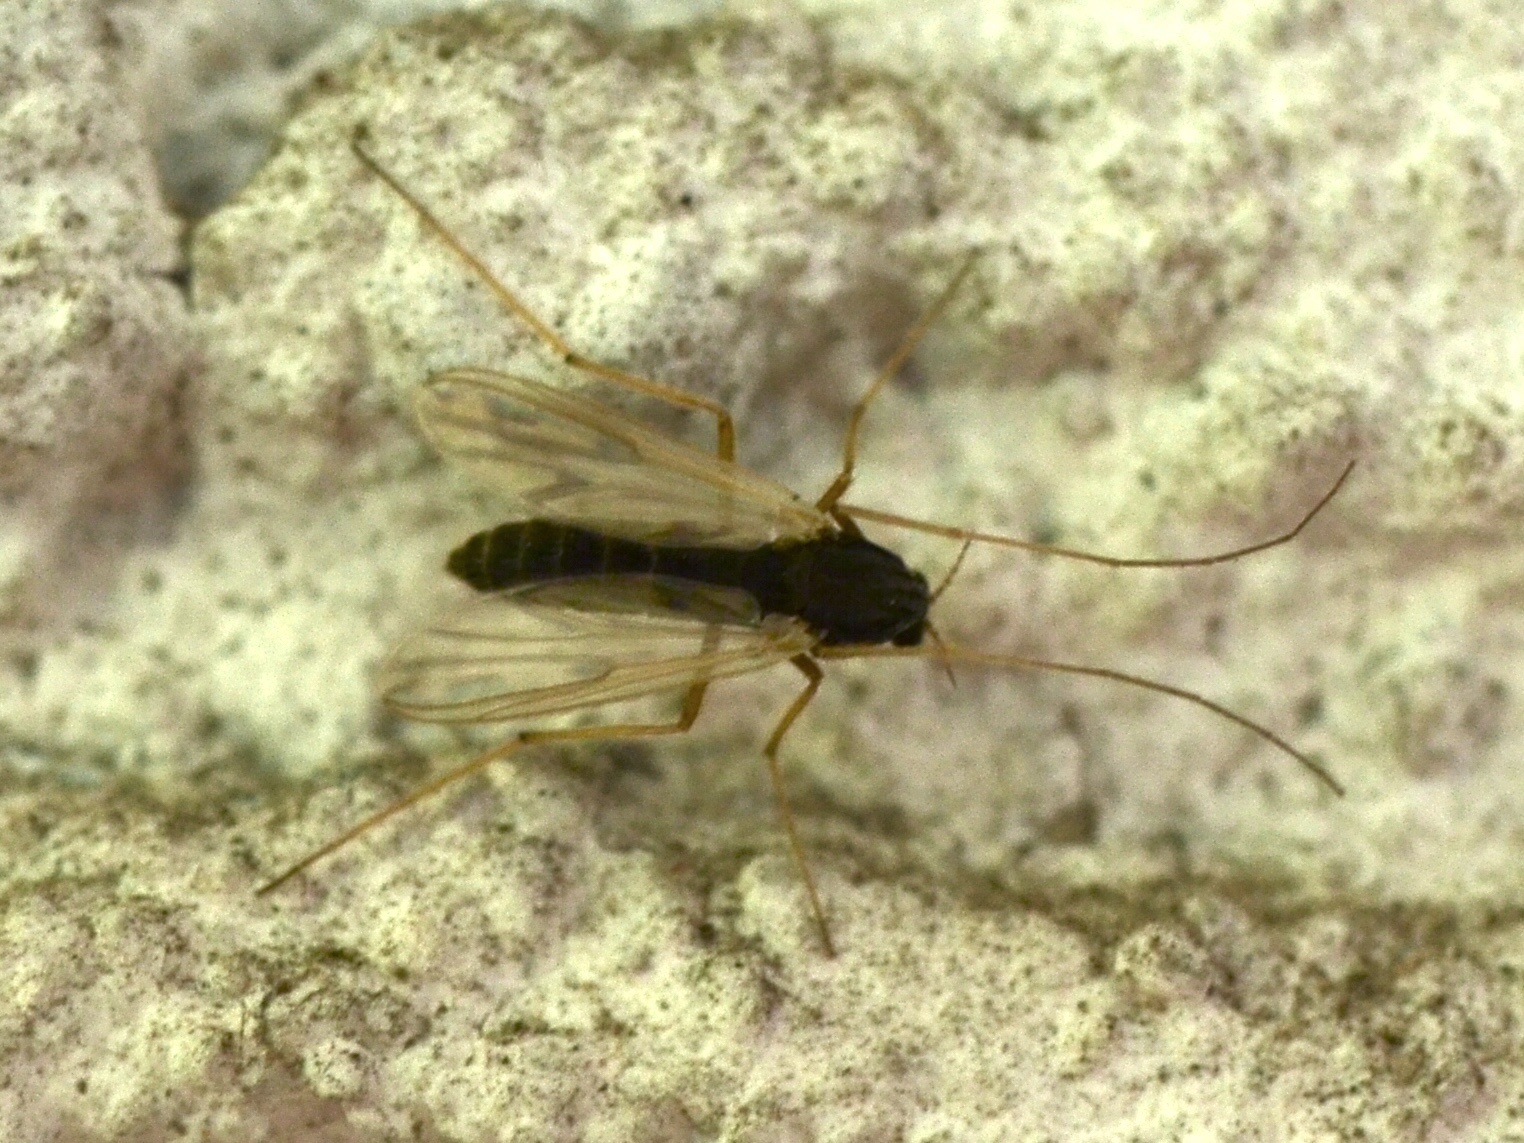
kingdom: Animalia
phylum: Arthropoda
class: Insecta
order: Diptera
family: Chironomidae
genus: Polypedilum
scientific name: Polypedilum
